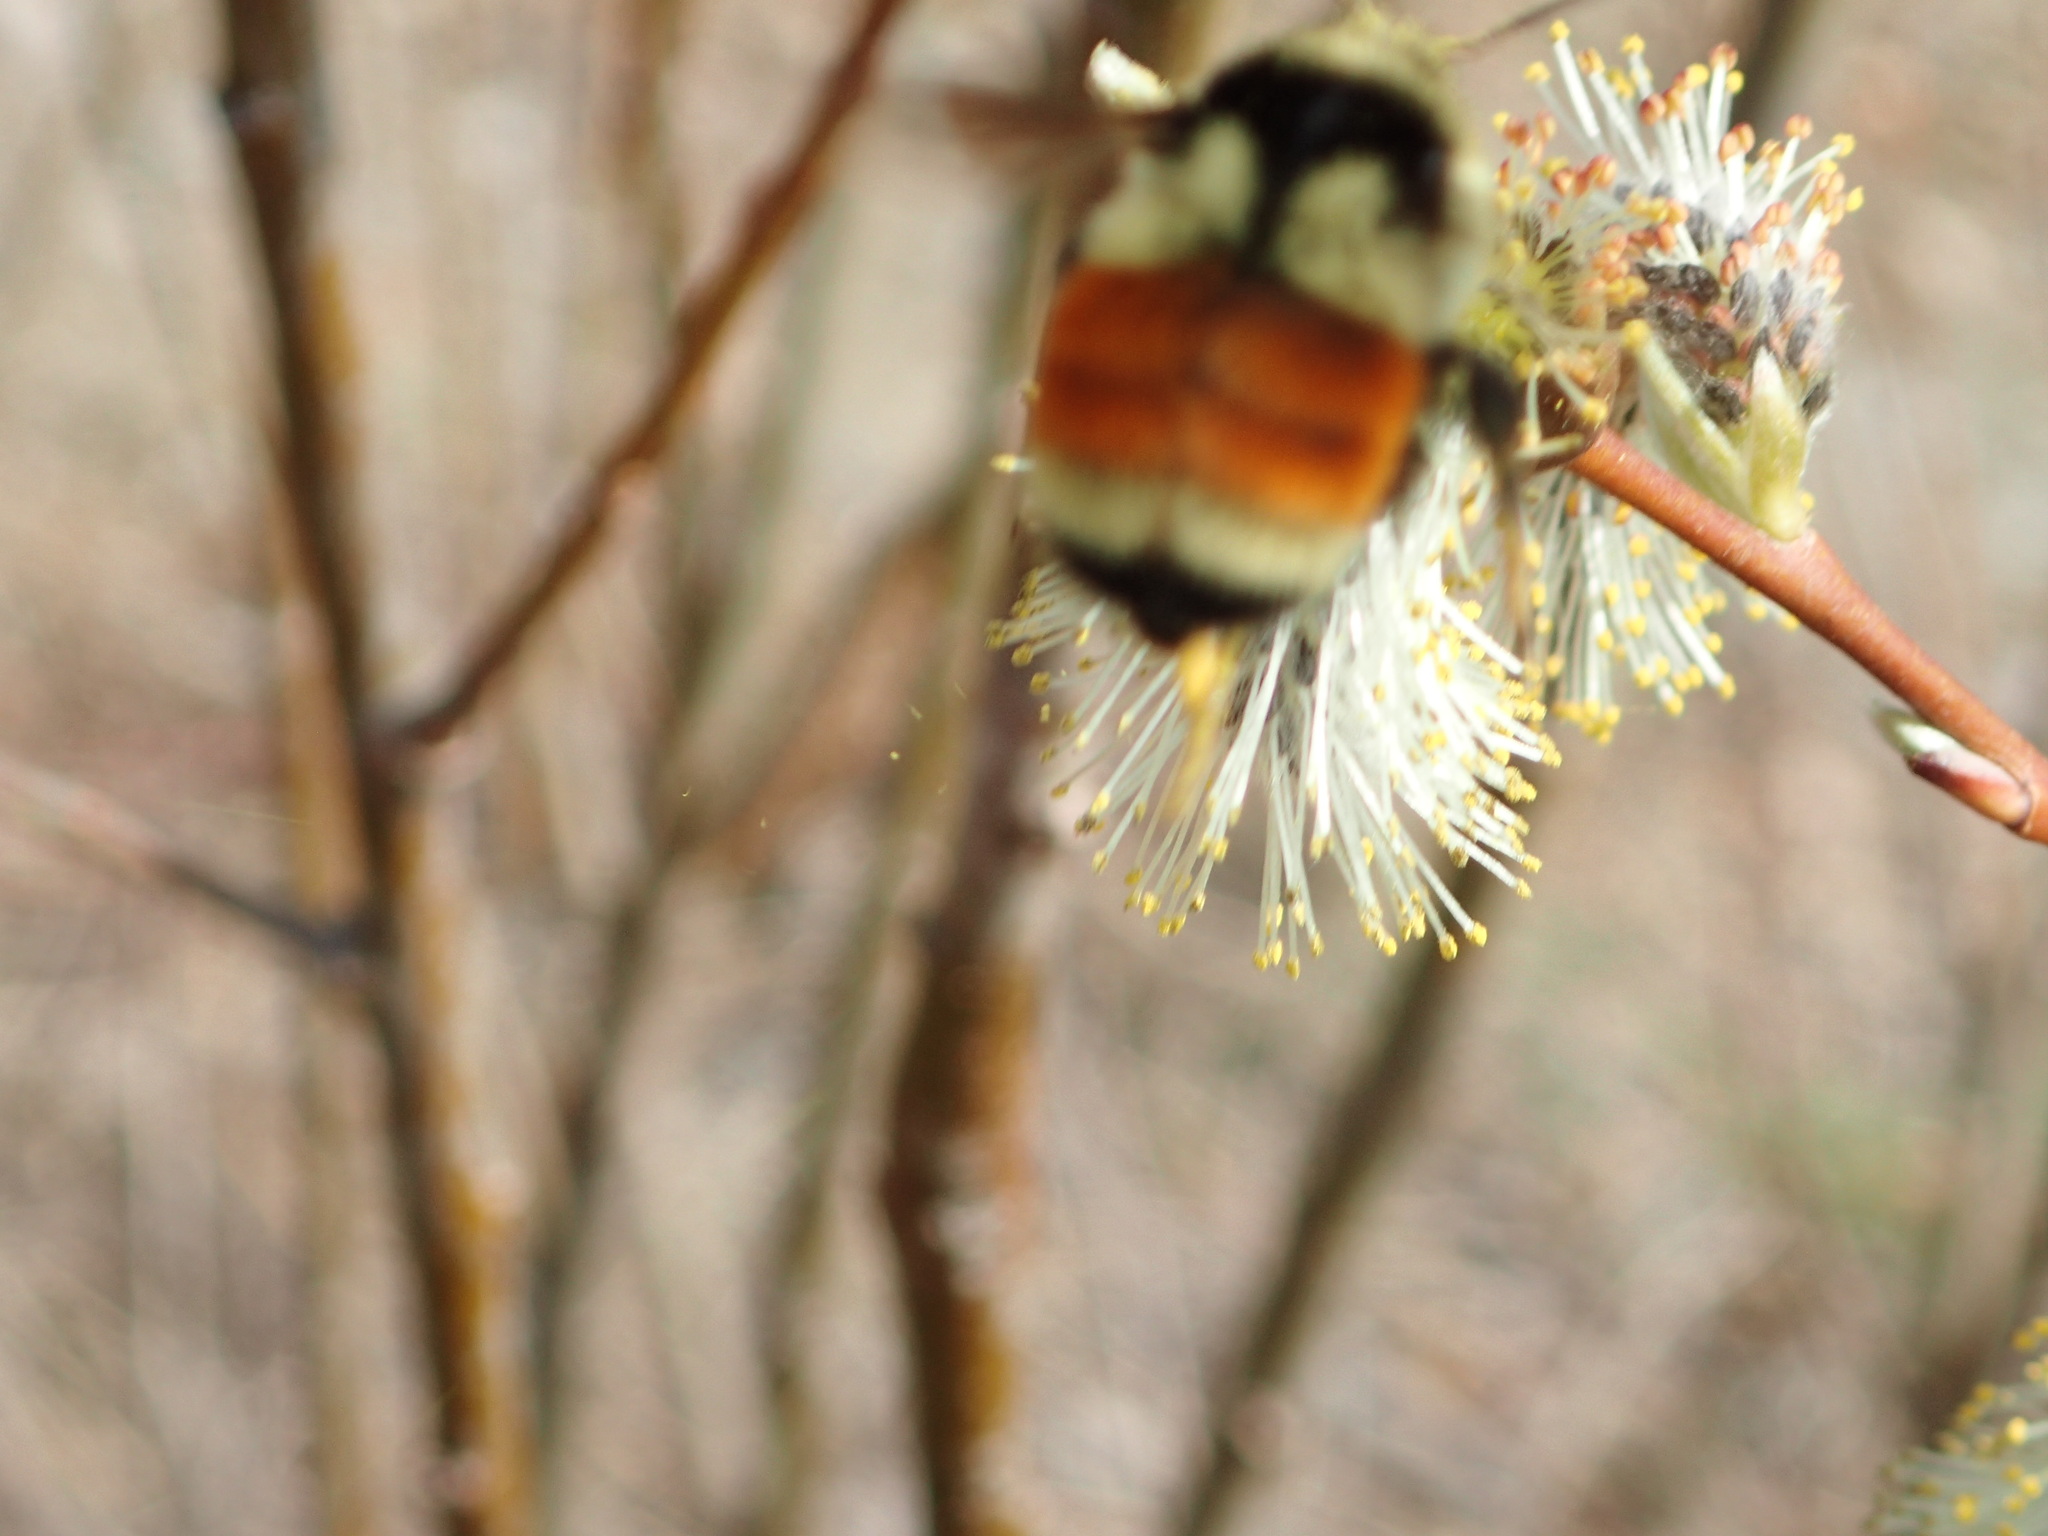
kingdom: Animalia
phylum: Arthropoda
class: Insecta
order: Hymenoptera
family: Apidae
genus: Bombus
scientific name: Bombus ternarius
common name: Tri-colored bumble bee
